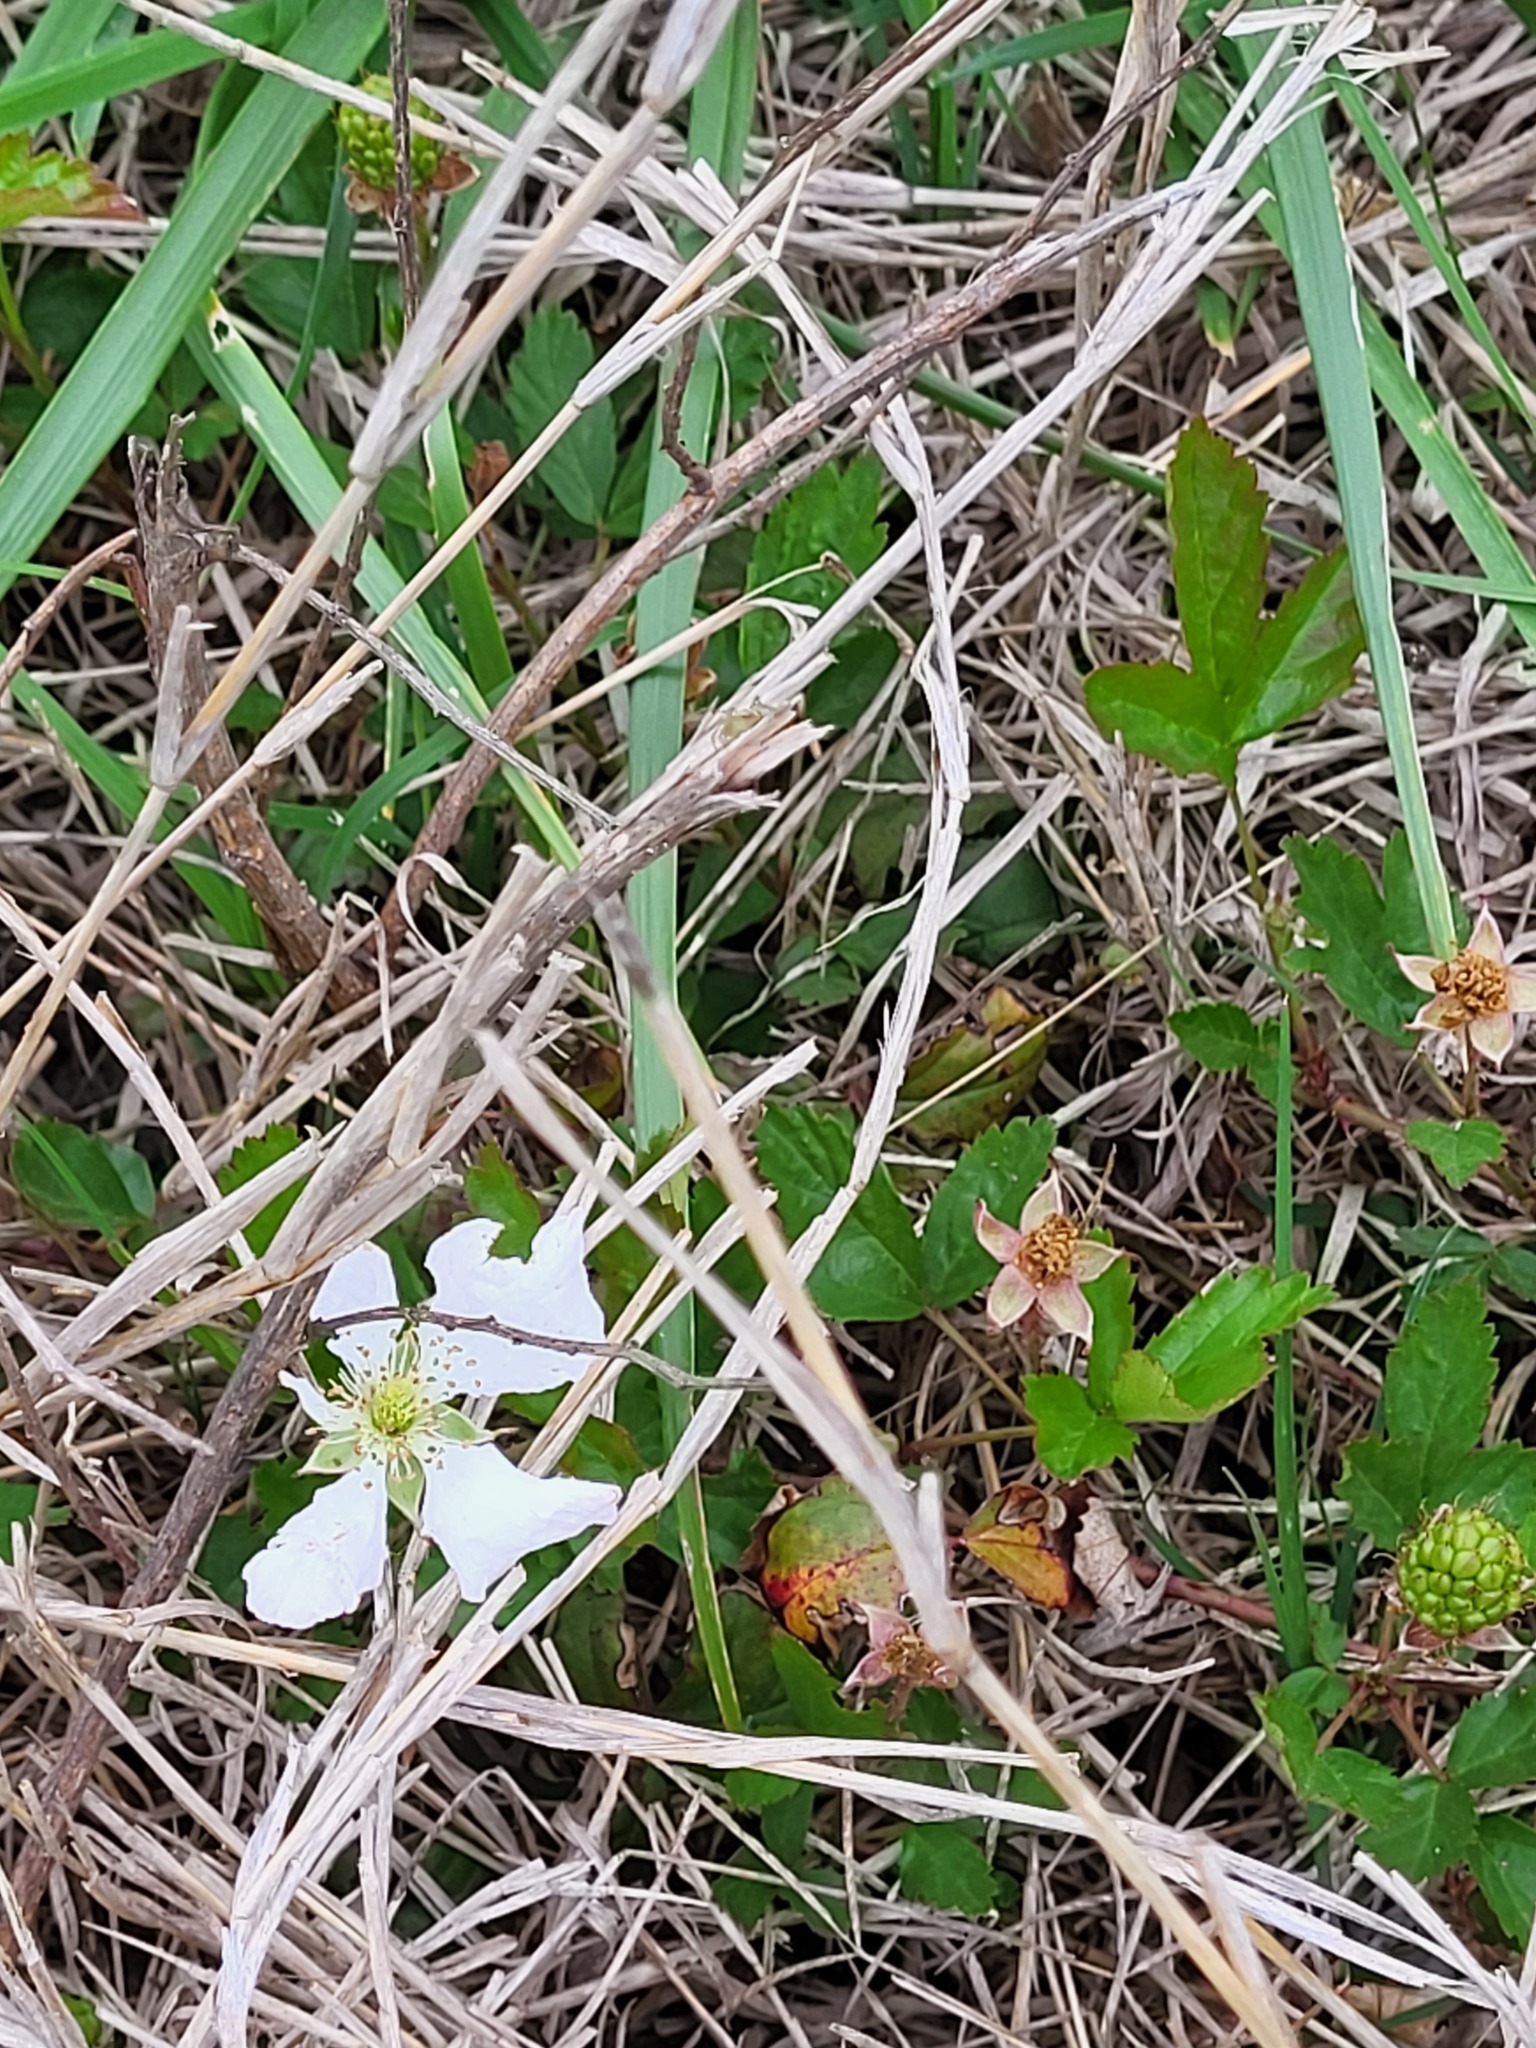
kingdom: Plantae
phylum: Tracheophyta
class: Magnoliopsida
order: Rosales
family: Rosaceae
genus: Rubus
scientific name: Rubus trivialis
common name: Southern dewberry
